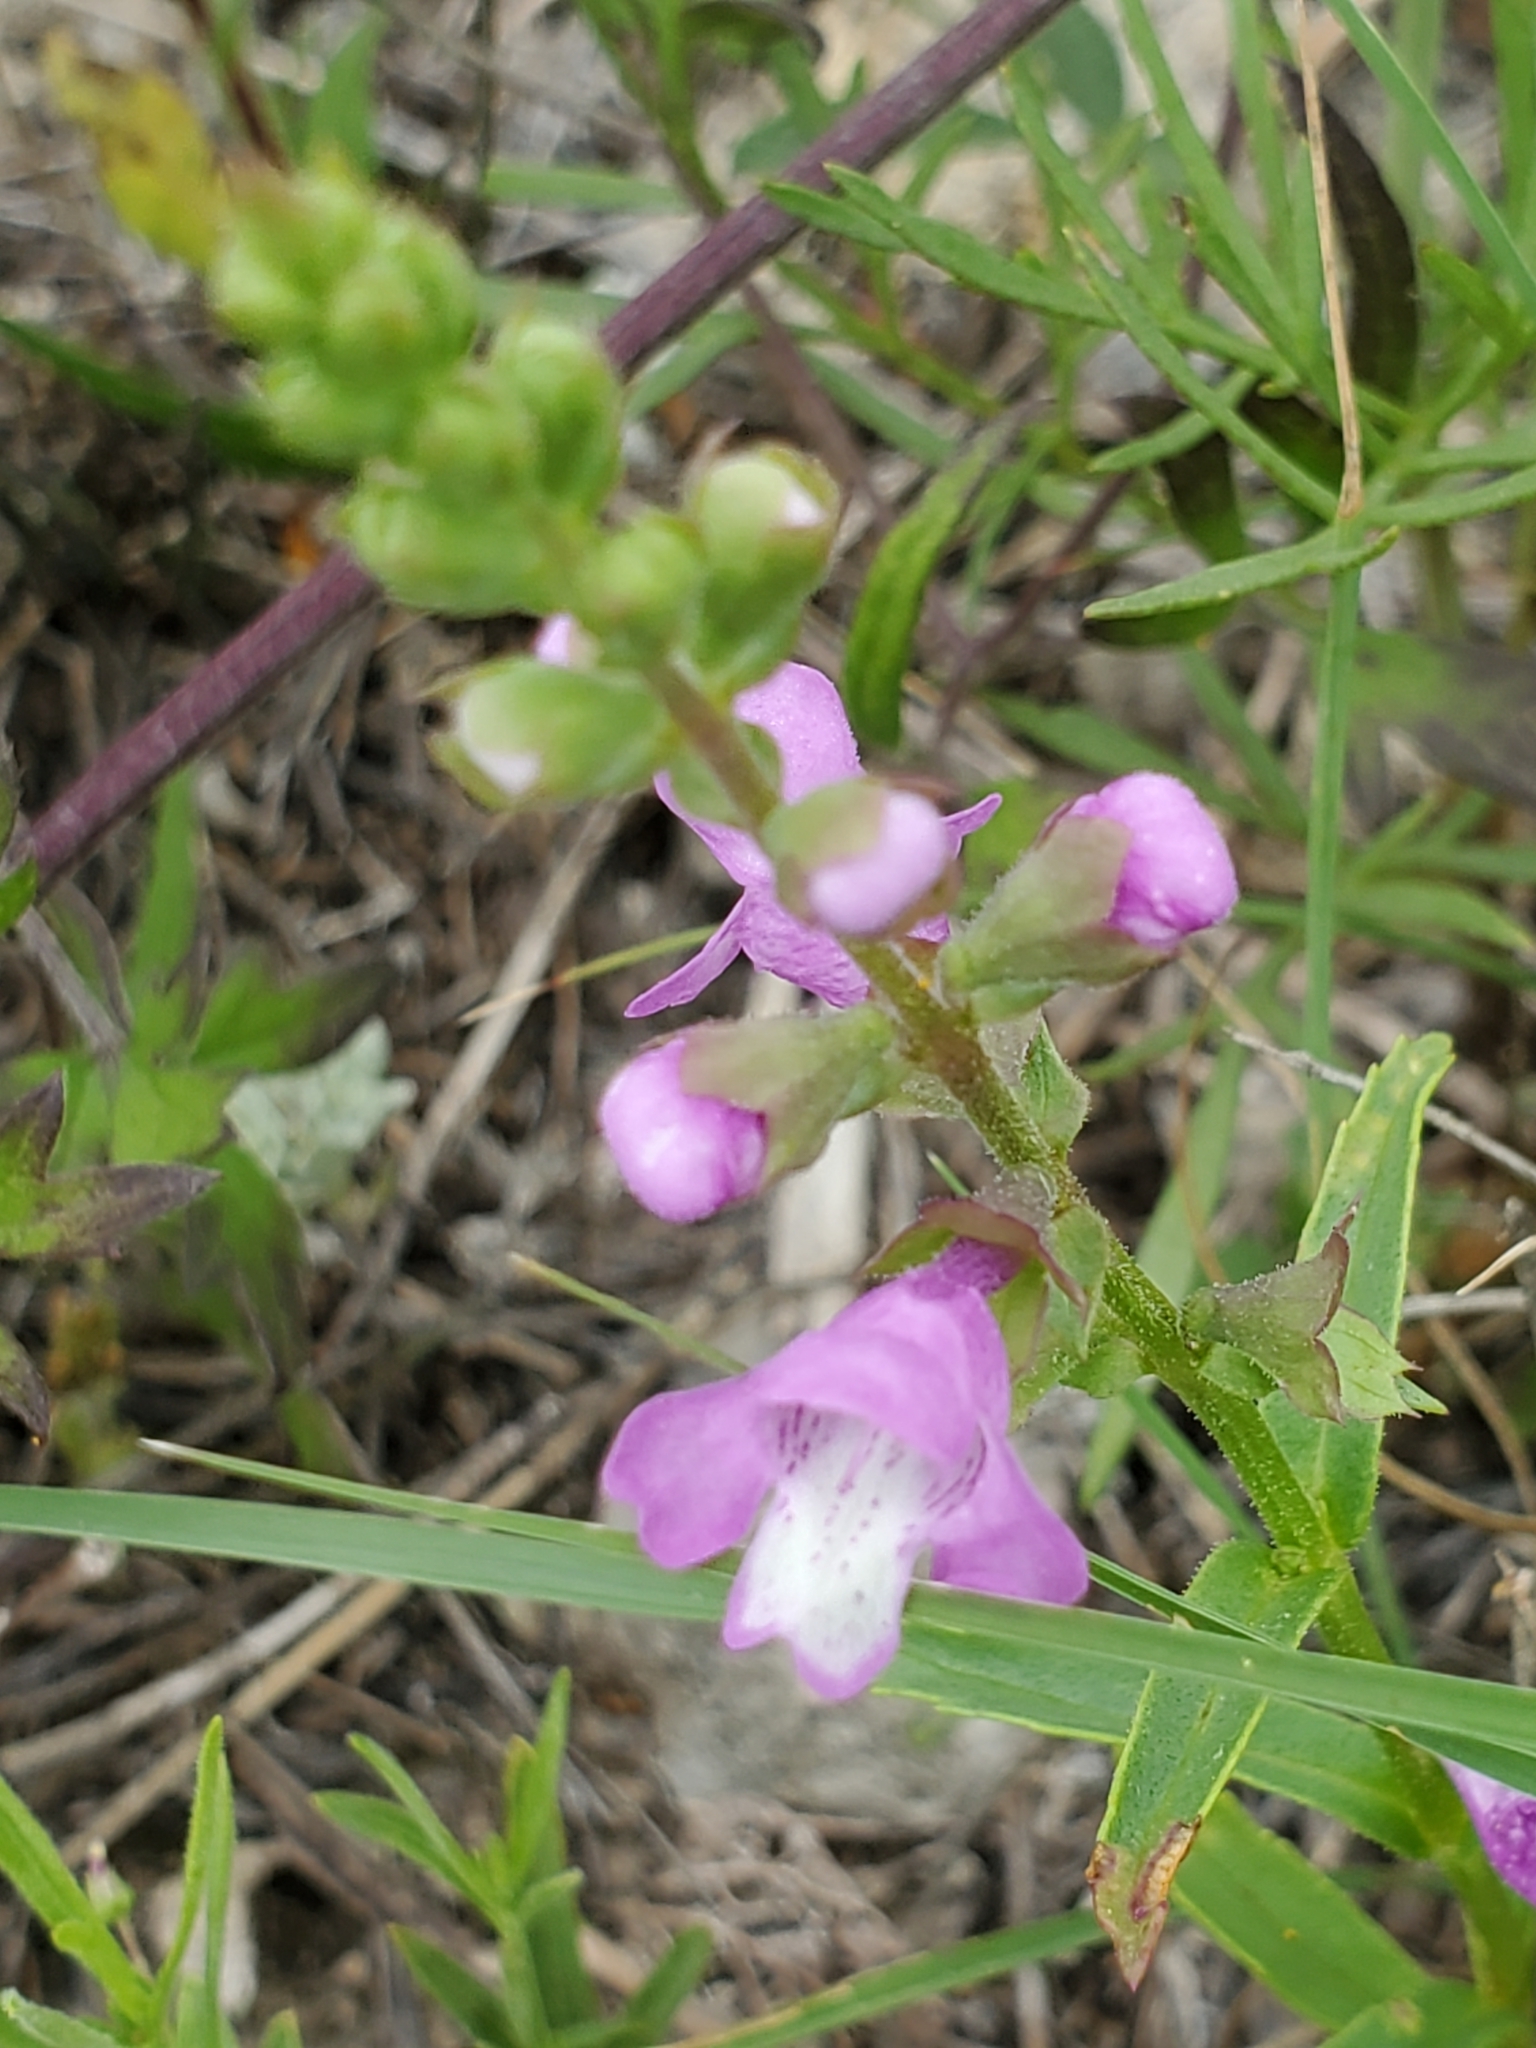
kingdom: Plantae
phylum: Tracheophyta
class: Magnoliopsida
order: Lamiales
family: Lamiaceae
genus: Warnockia
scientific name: Warnockia scutellarioides
